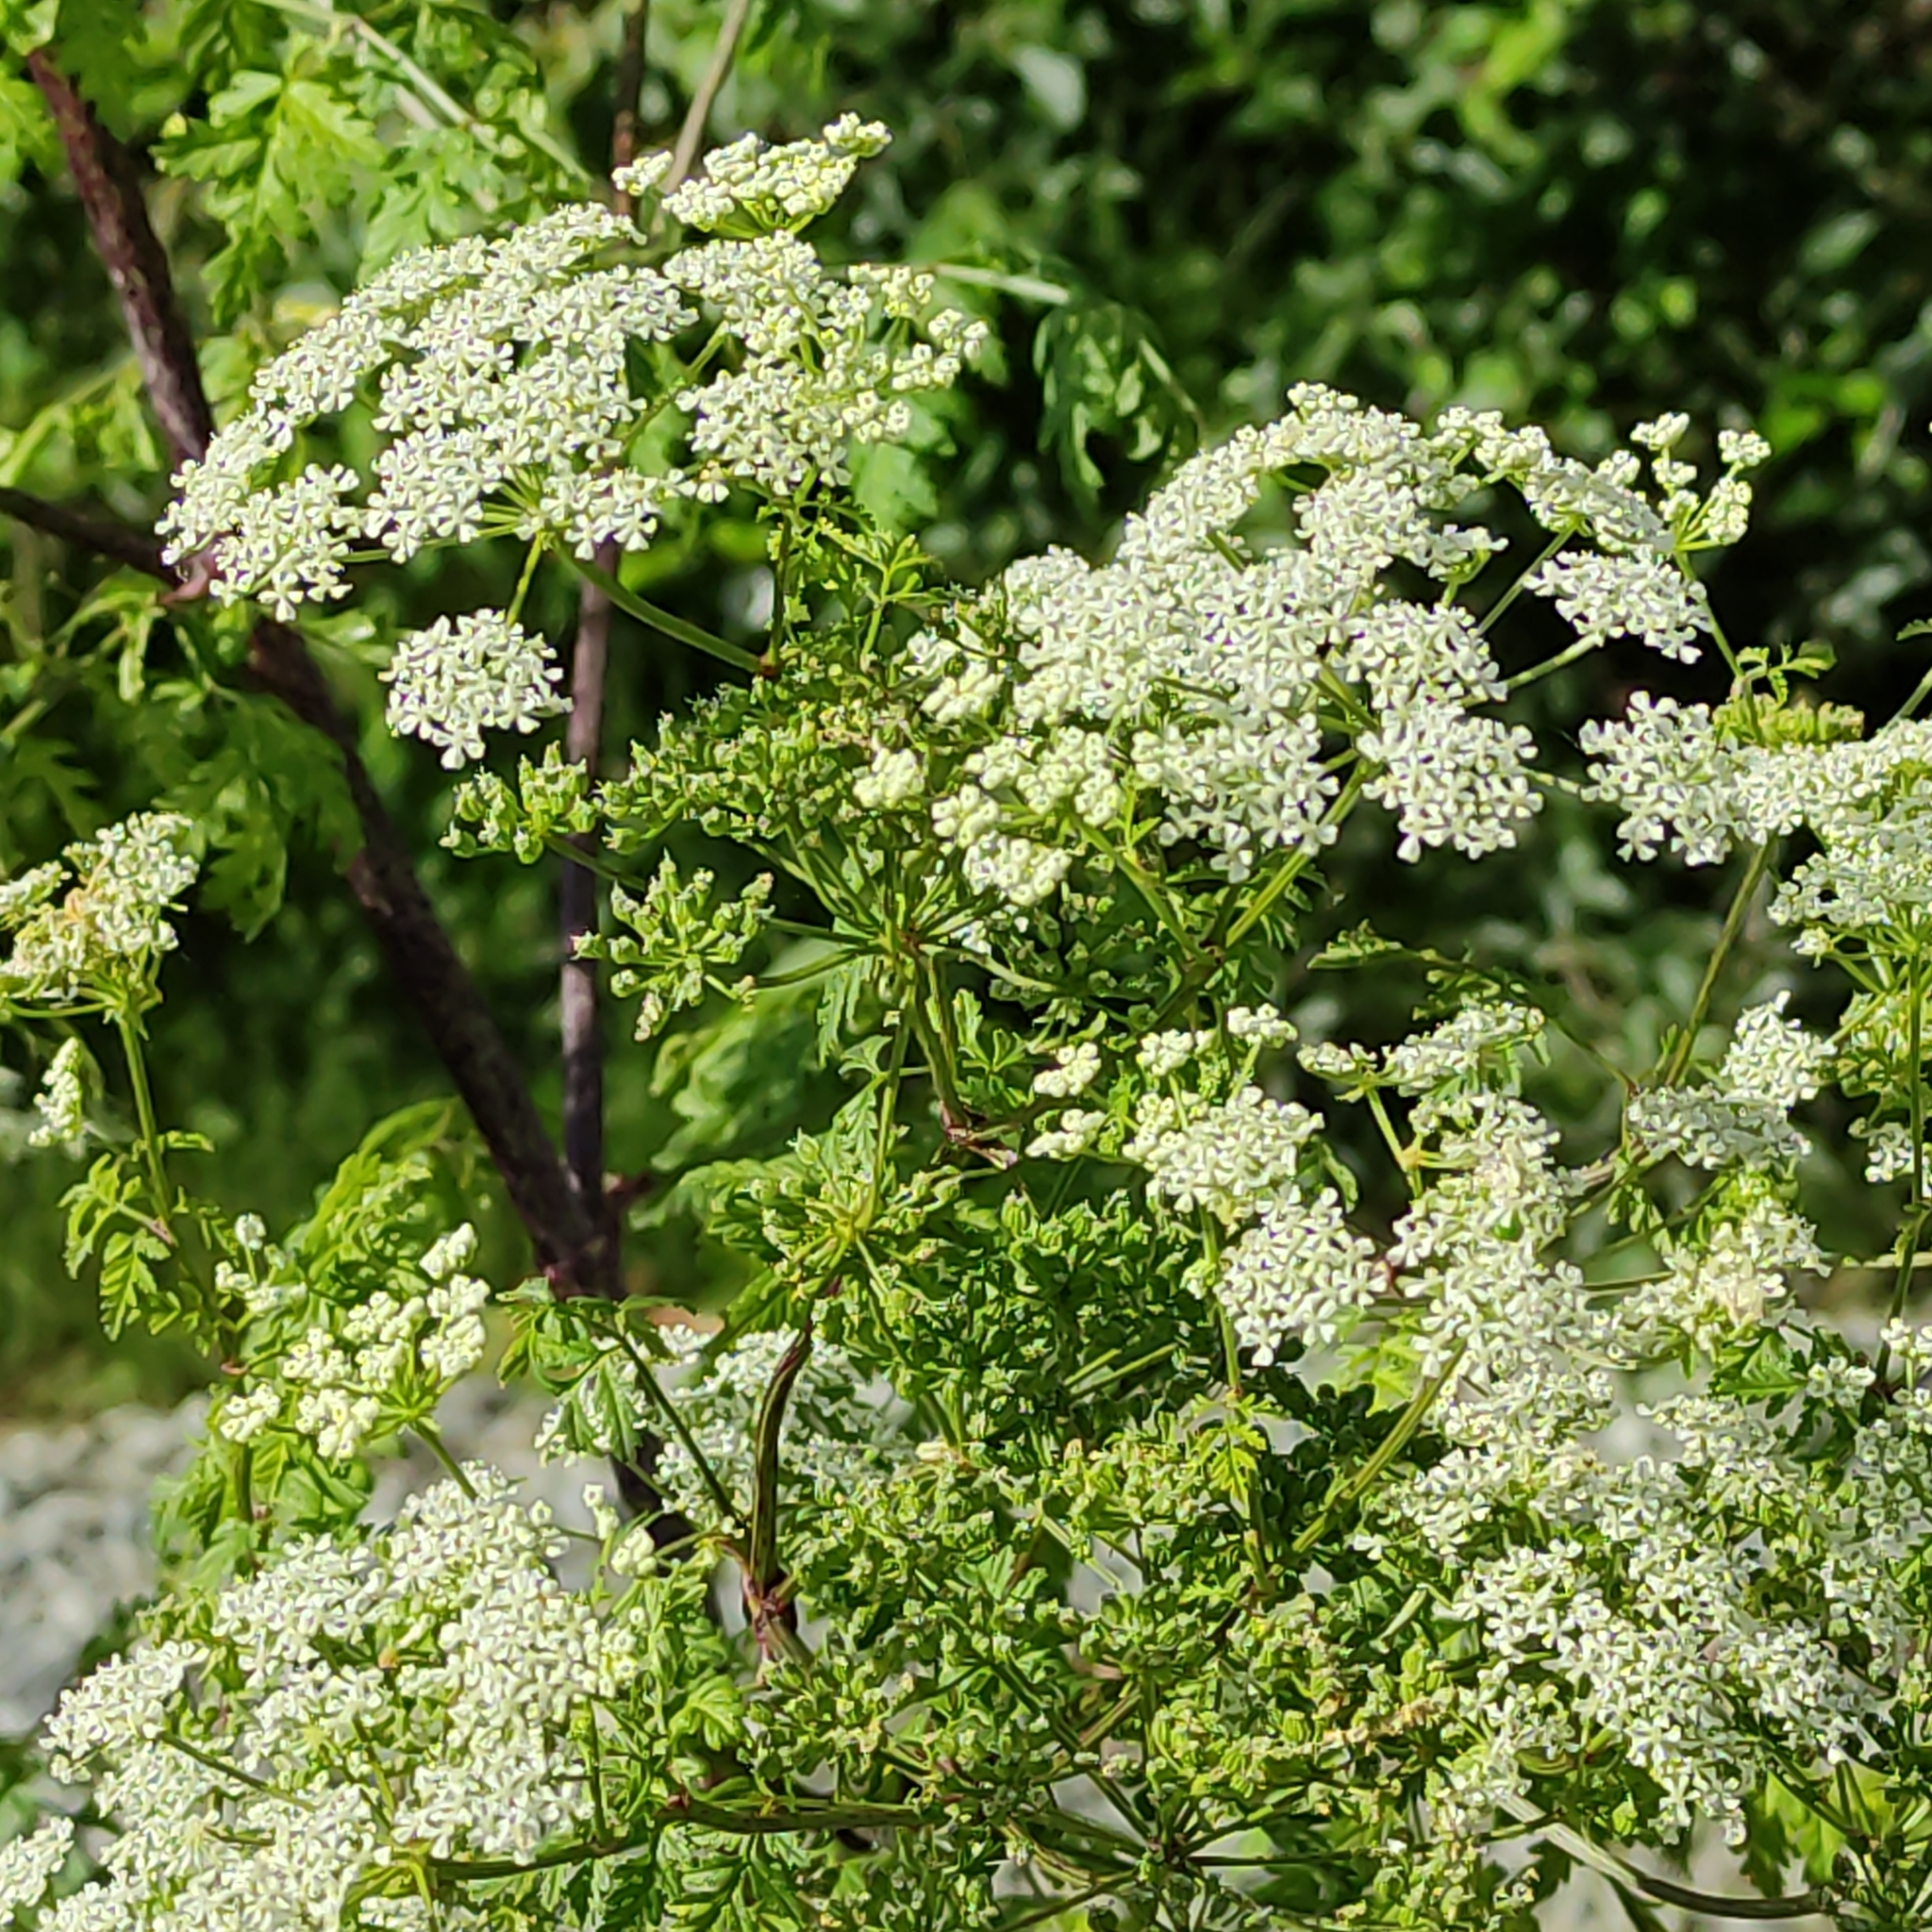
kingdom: Plantae
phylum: Tracheophyta
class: Magnoliopsida
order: Apiales
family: Apiaceae
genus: Conium
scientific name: Conium maculatum
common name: Hemlock
